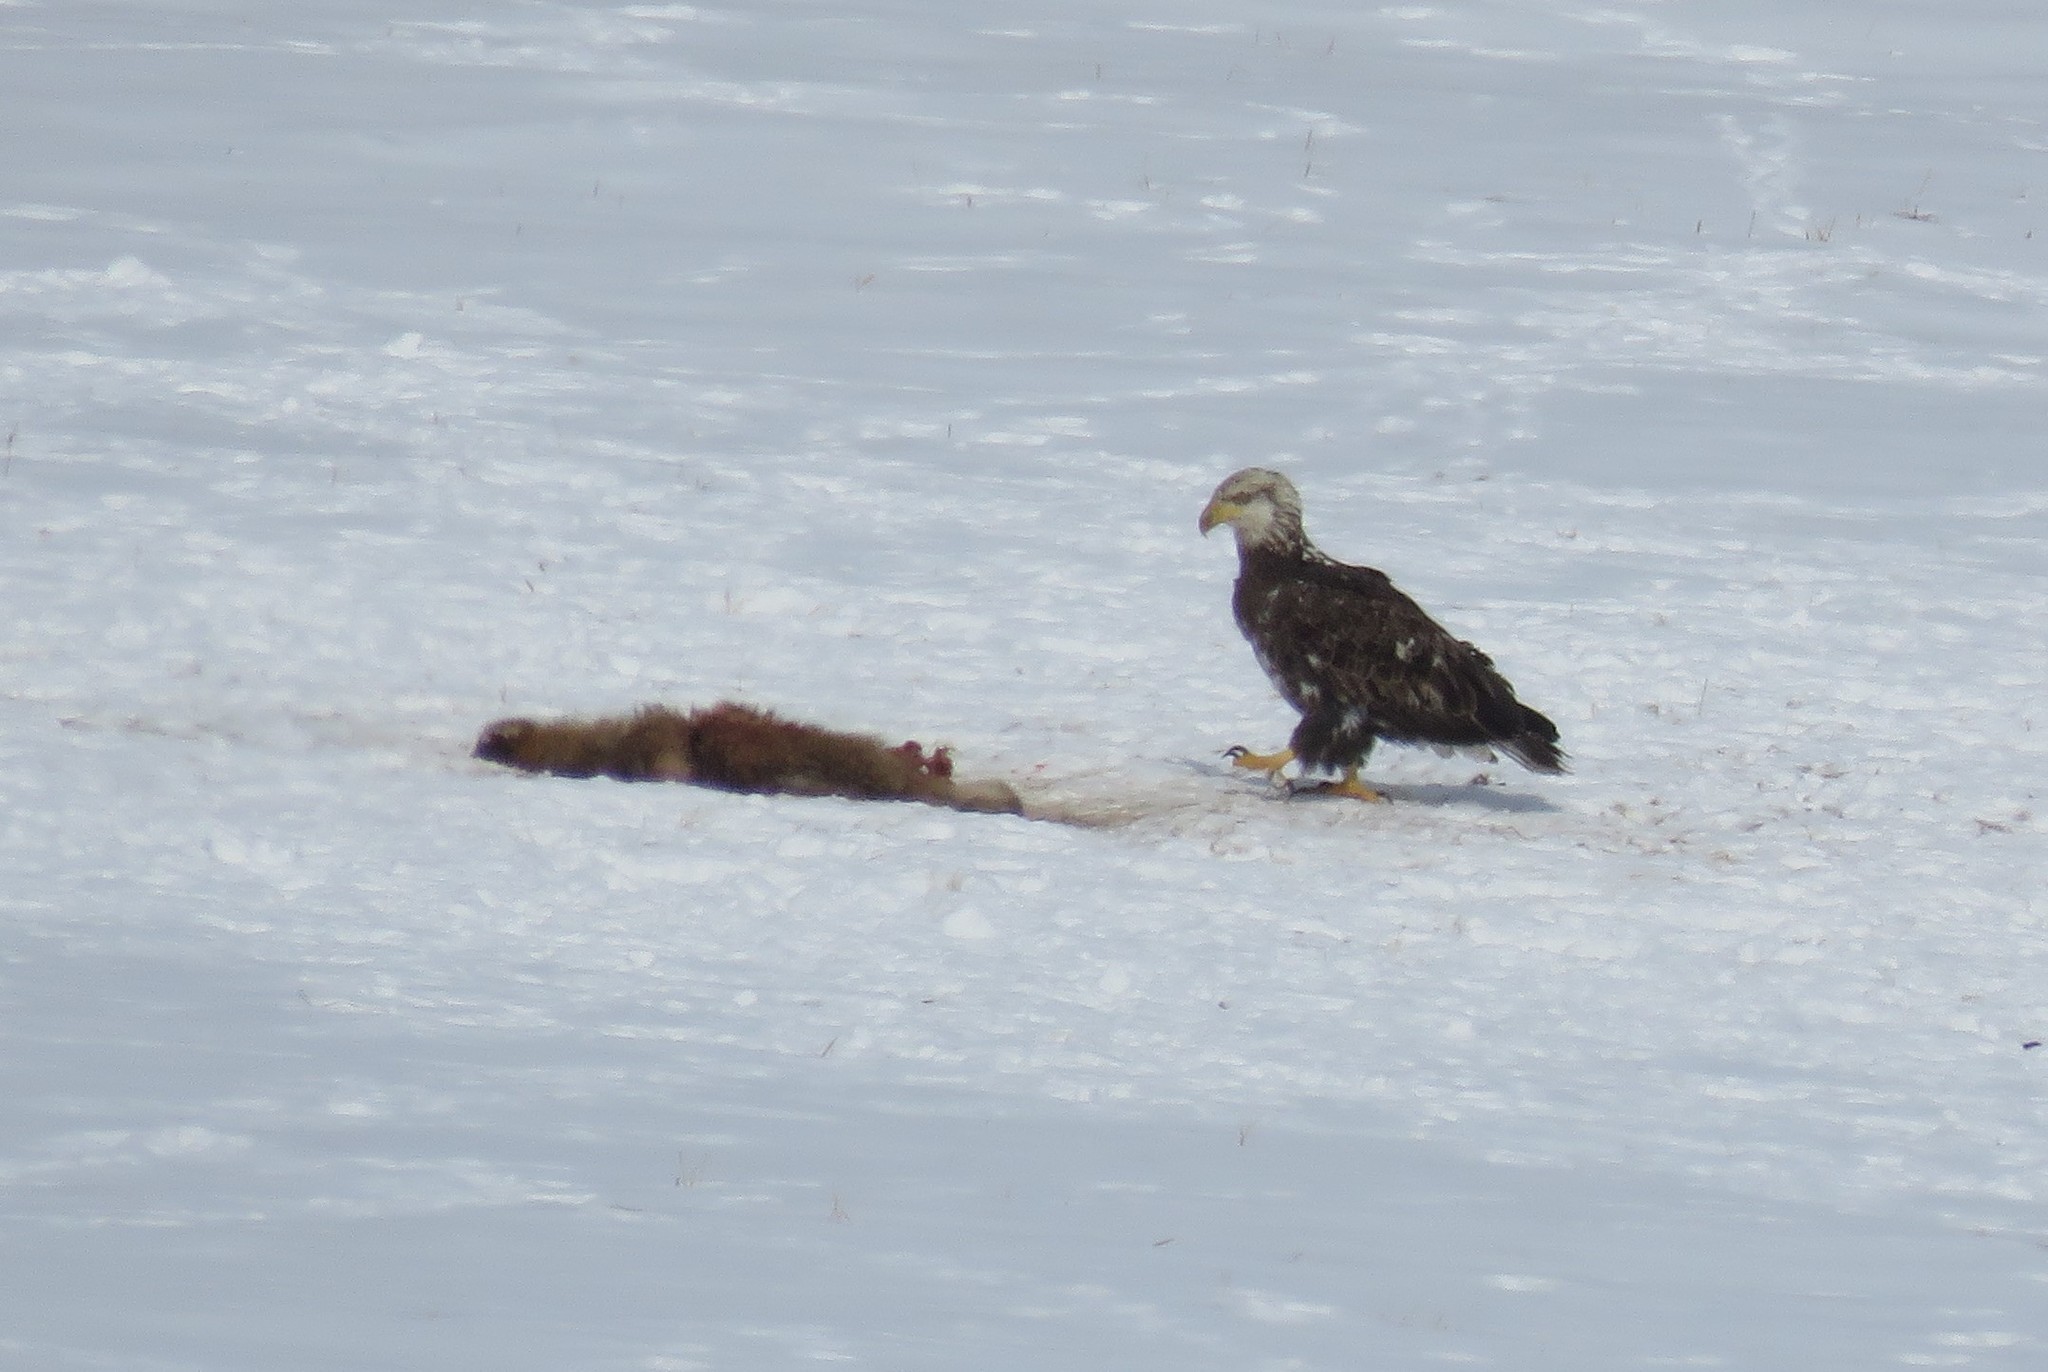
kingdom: Animalia
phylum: Chordata
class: Aves
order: Accipitriformes
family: Accipitridae
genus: Haliaeetus
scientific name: Haliaeetus leucocephalus
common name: Bald eagle
